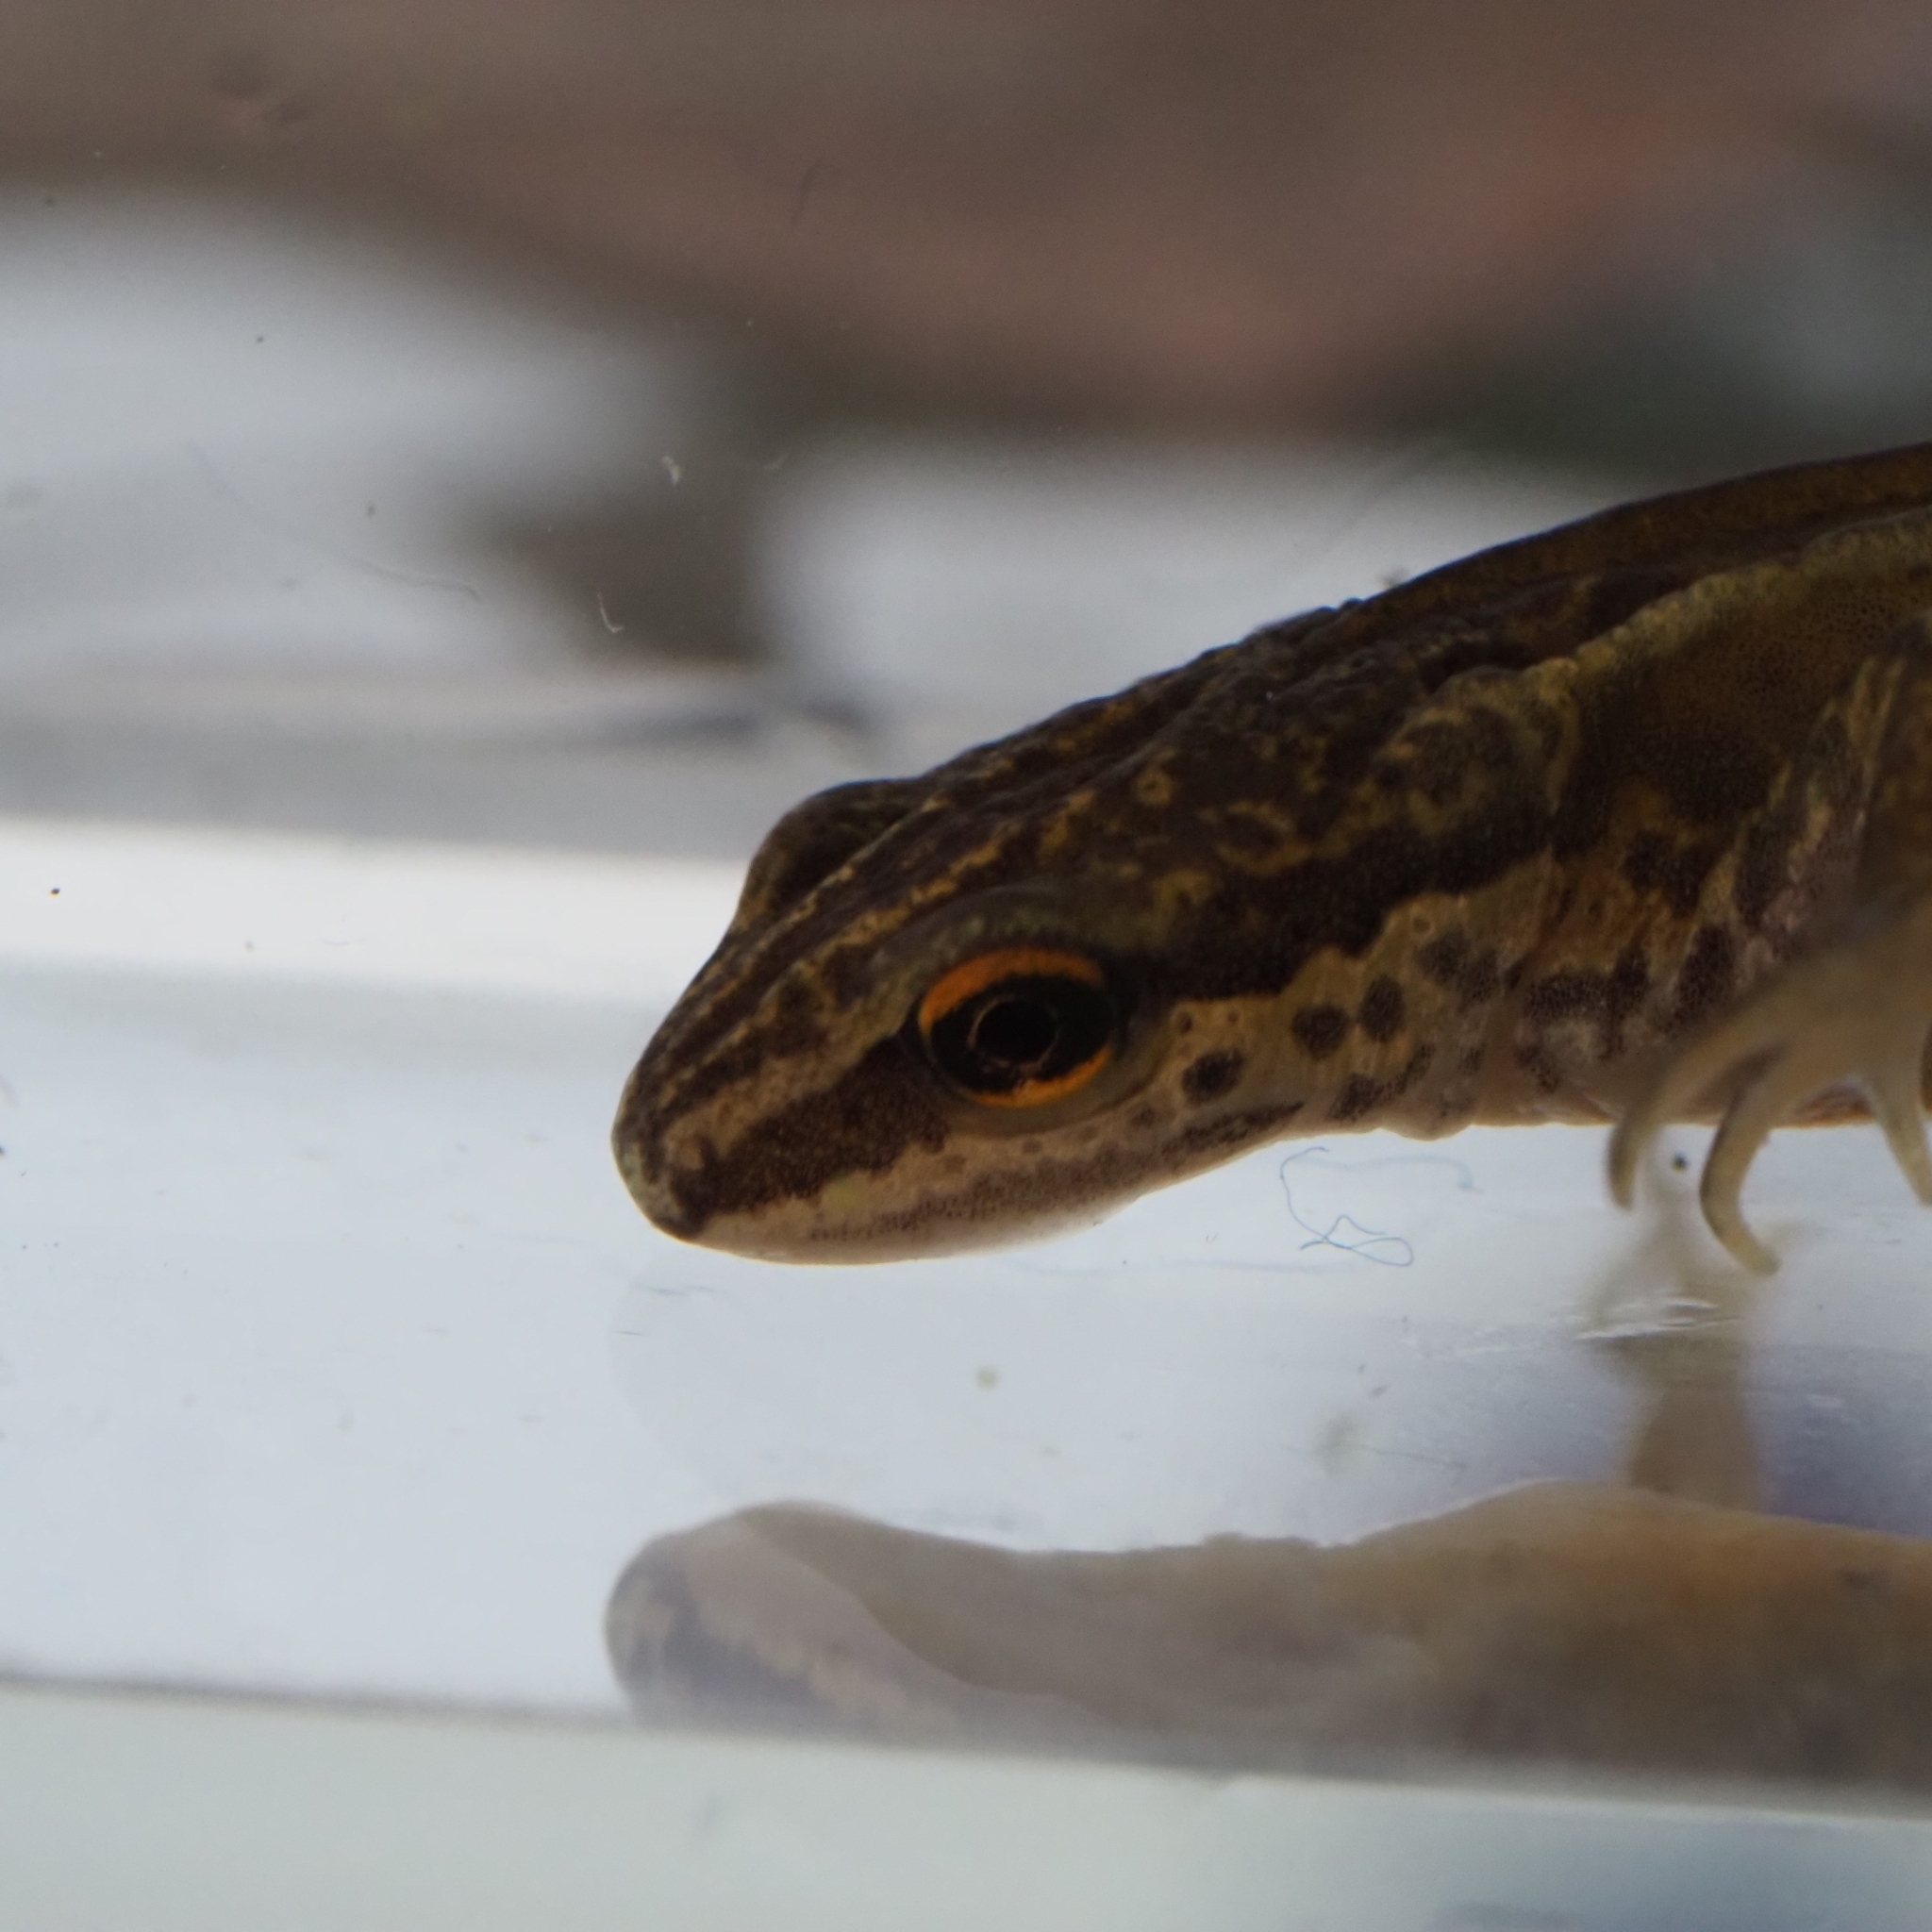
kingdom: Animalia
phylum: Chordata
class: Amphibia
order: Caudata
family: Salamandridae
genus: Lissotriton
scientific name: Lissotriton helveticus
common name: Palmate newt
